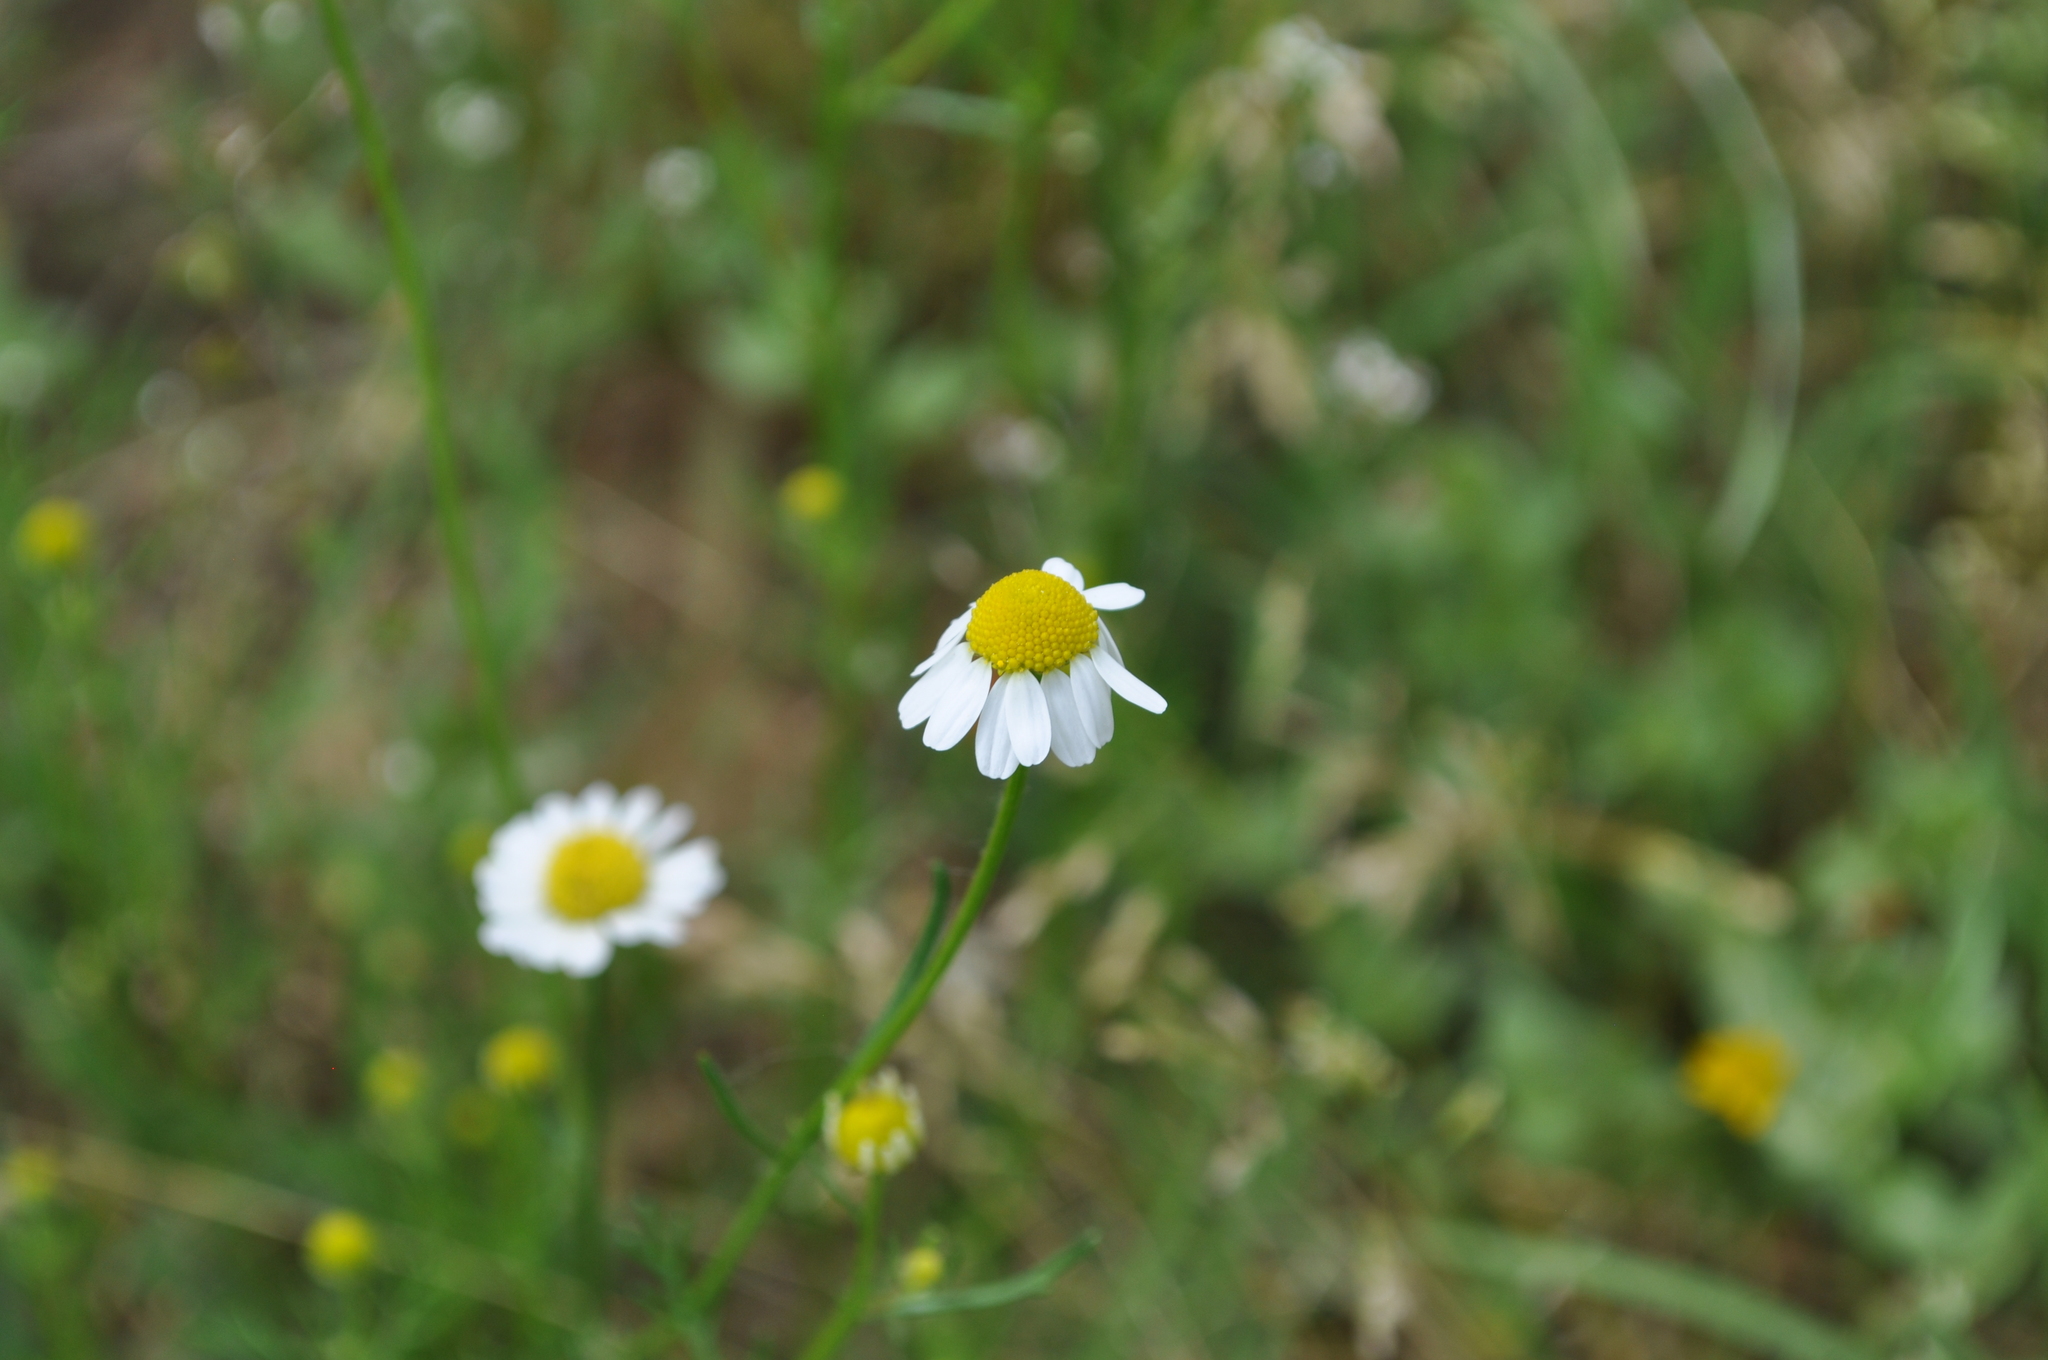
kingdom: Plantae
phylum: Tracheophyta
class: Magnoliopsida
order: Asterales
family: Asteraceae
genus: Matricaria
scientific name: Matricaria chamomilla
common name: Scented mayweed
